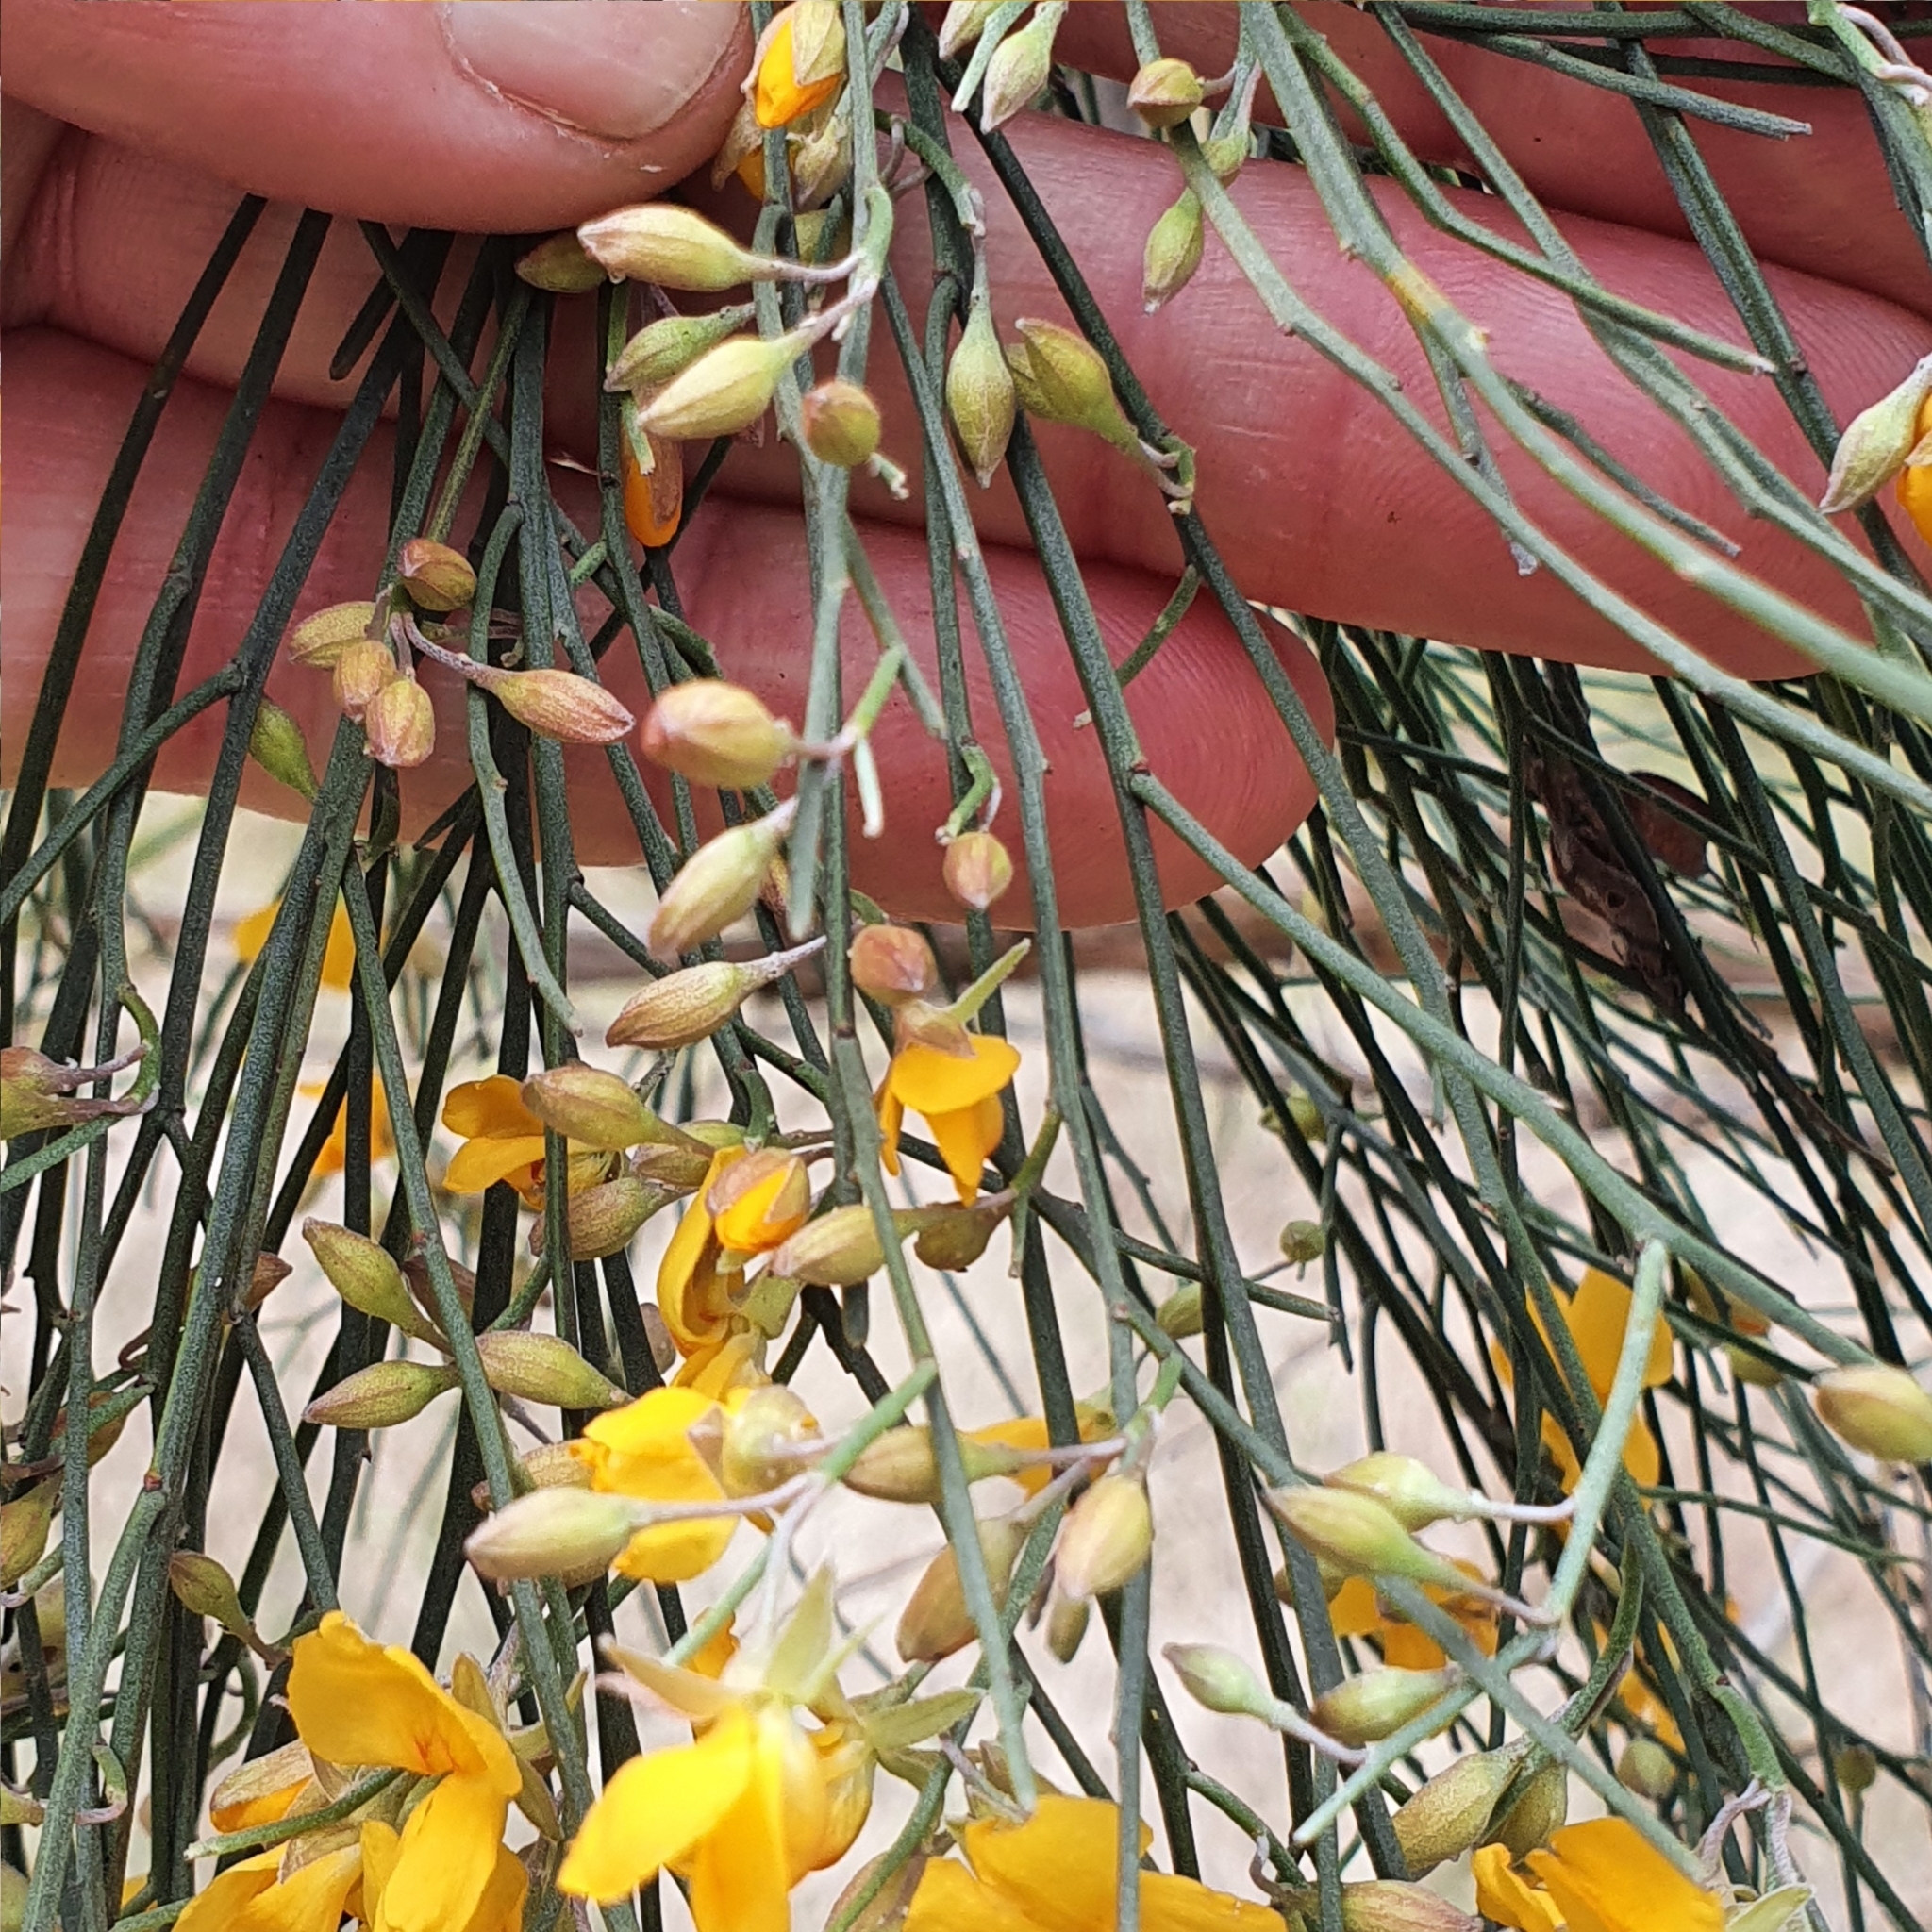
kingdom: Plantae
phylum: Tracheophyta
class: Magnoliopsida
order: Fabales
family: Fabaceae
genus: Jacksonia
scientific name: Jacksonia scoparia
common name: Dogwood
